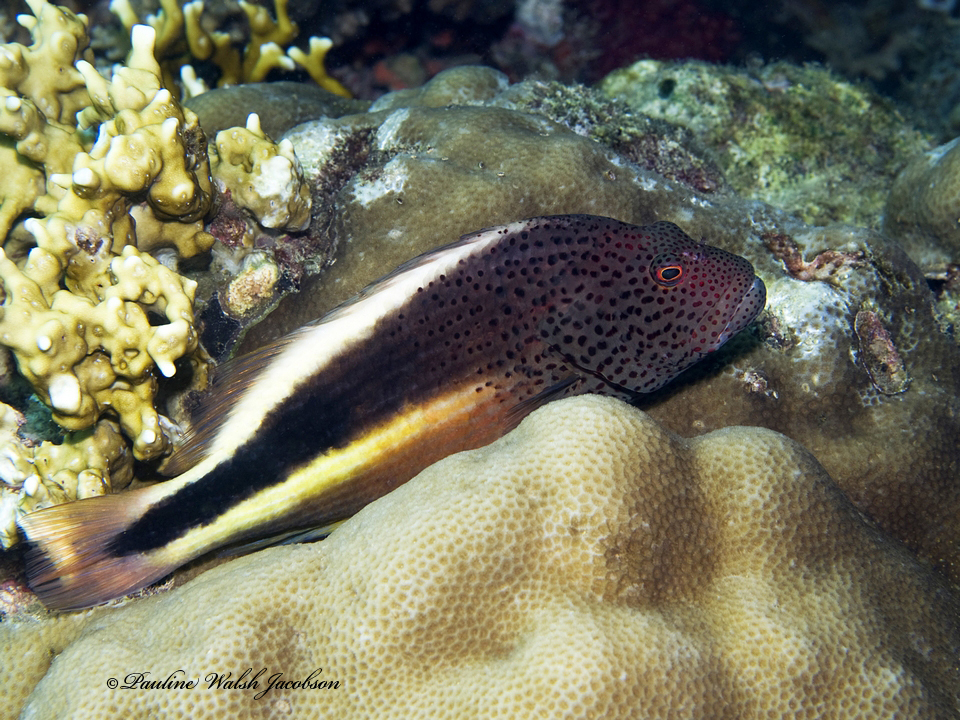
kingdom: Animalia
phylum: Chordata
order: Perciformes
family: Cirrhitidae
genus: Paracirrhites
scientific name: Paracirrhites forsteri
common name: Freckled hawkfish
